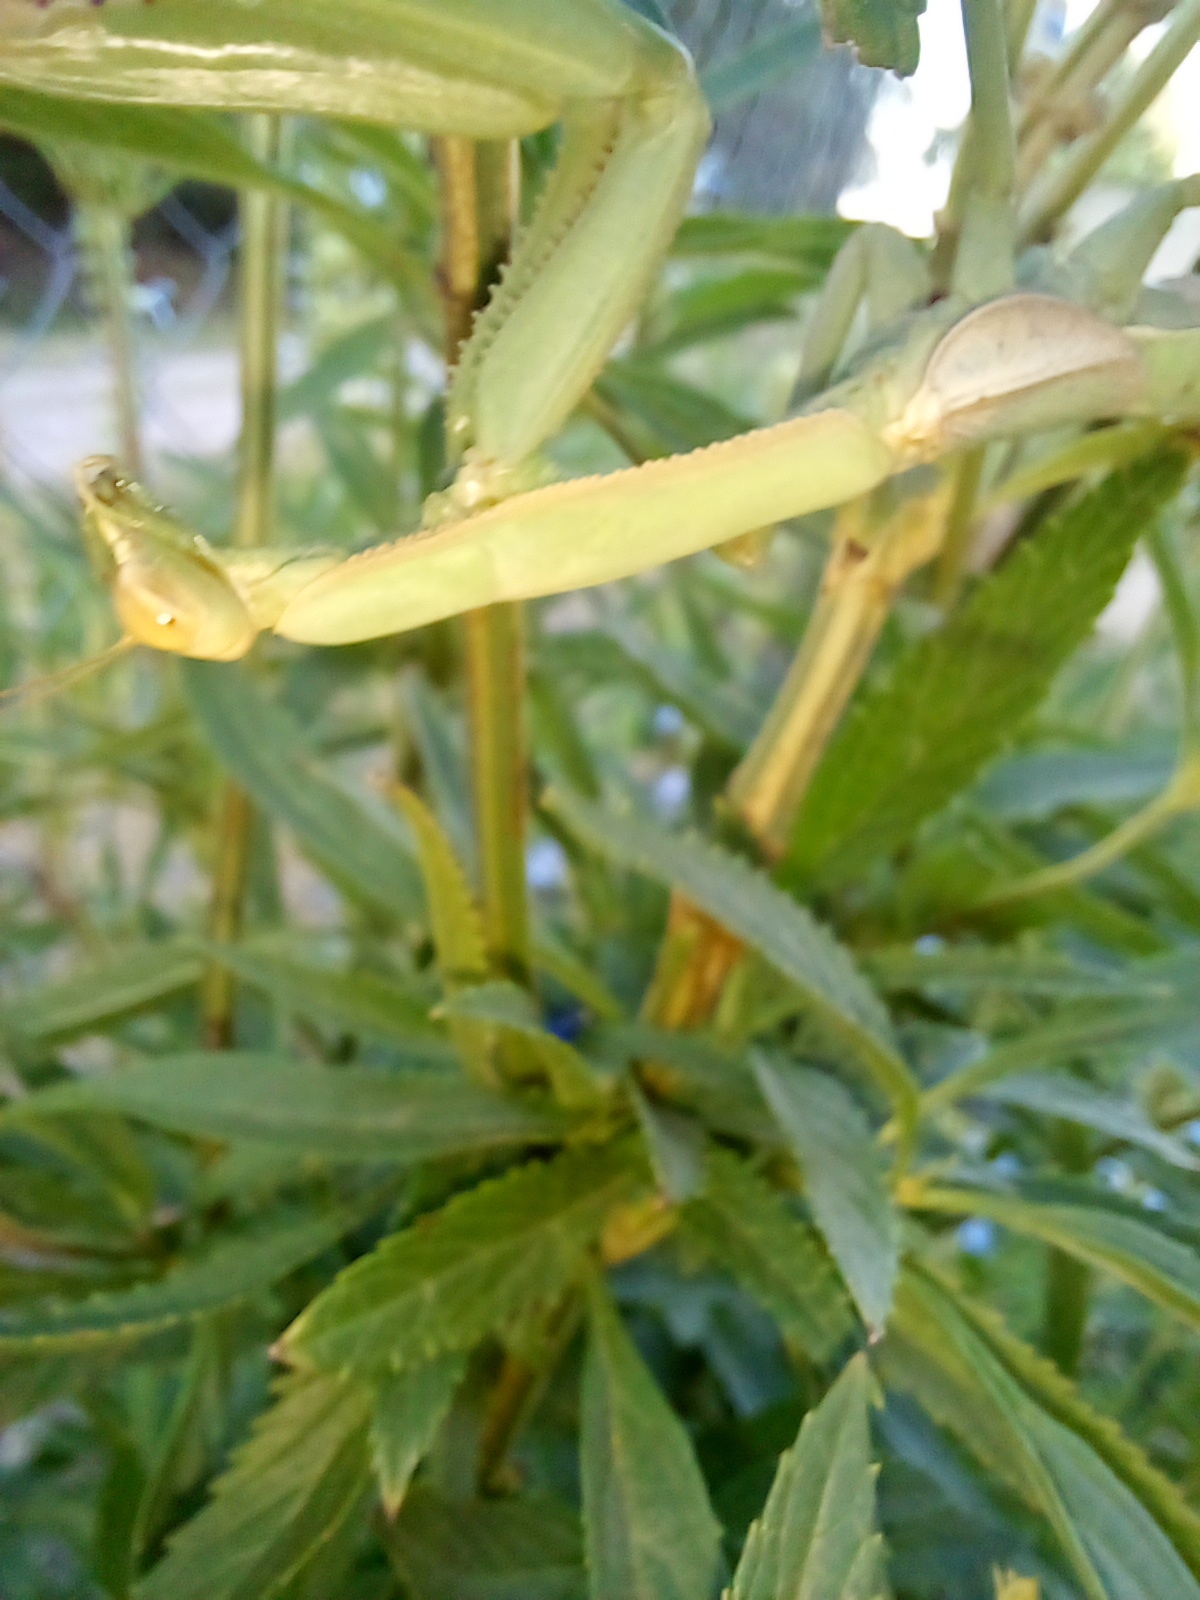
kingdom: Animalia
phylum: Arthropoda
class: Insecta
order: Mantodea
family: Coptopterygidae
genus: Coptopteryx
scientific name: Coptopteryx argentina
